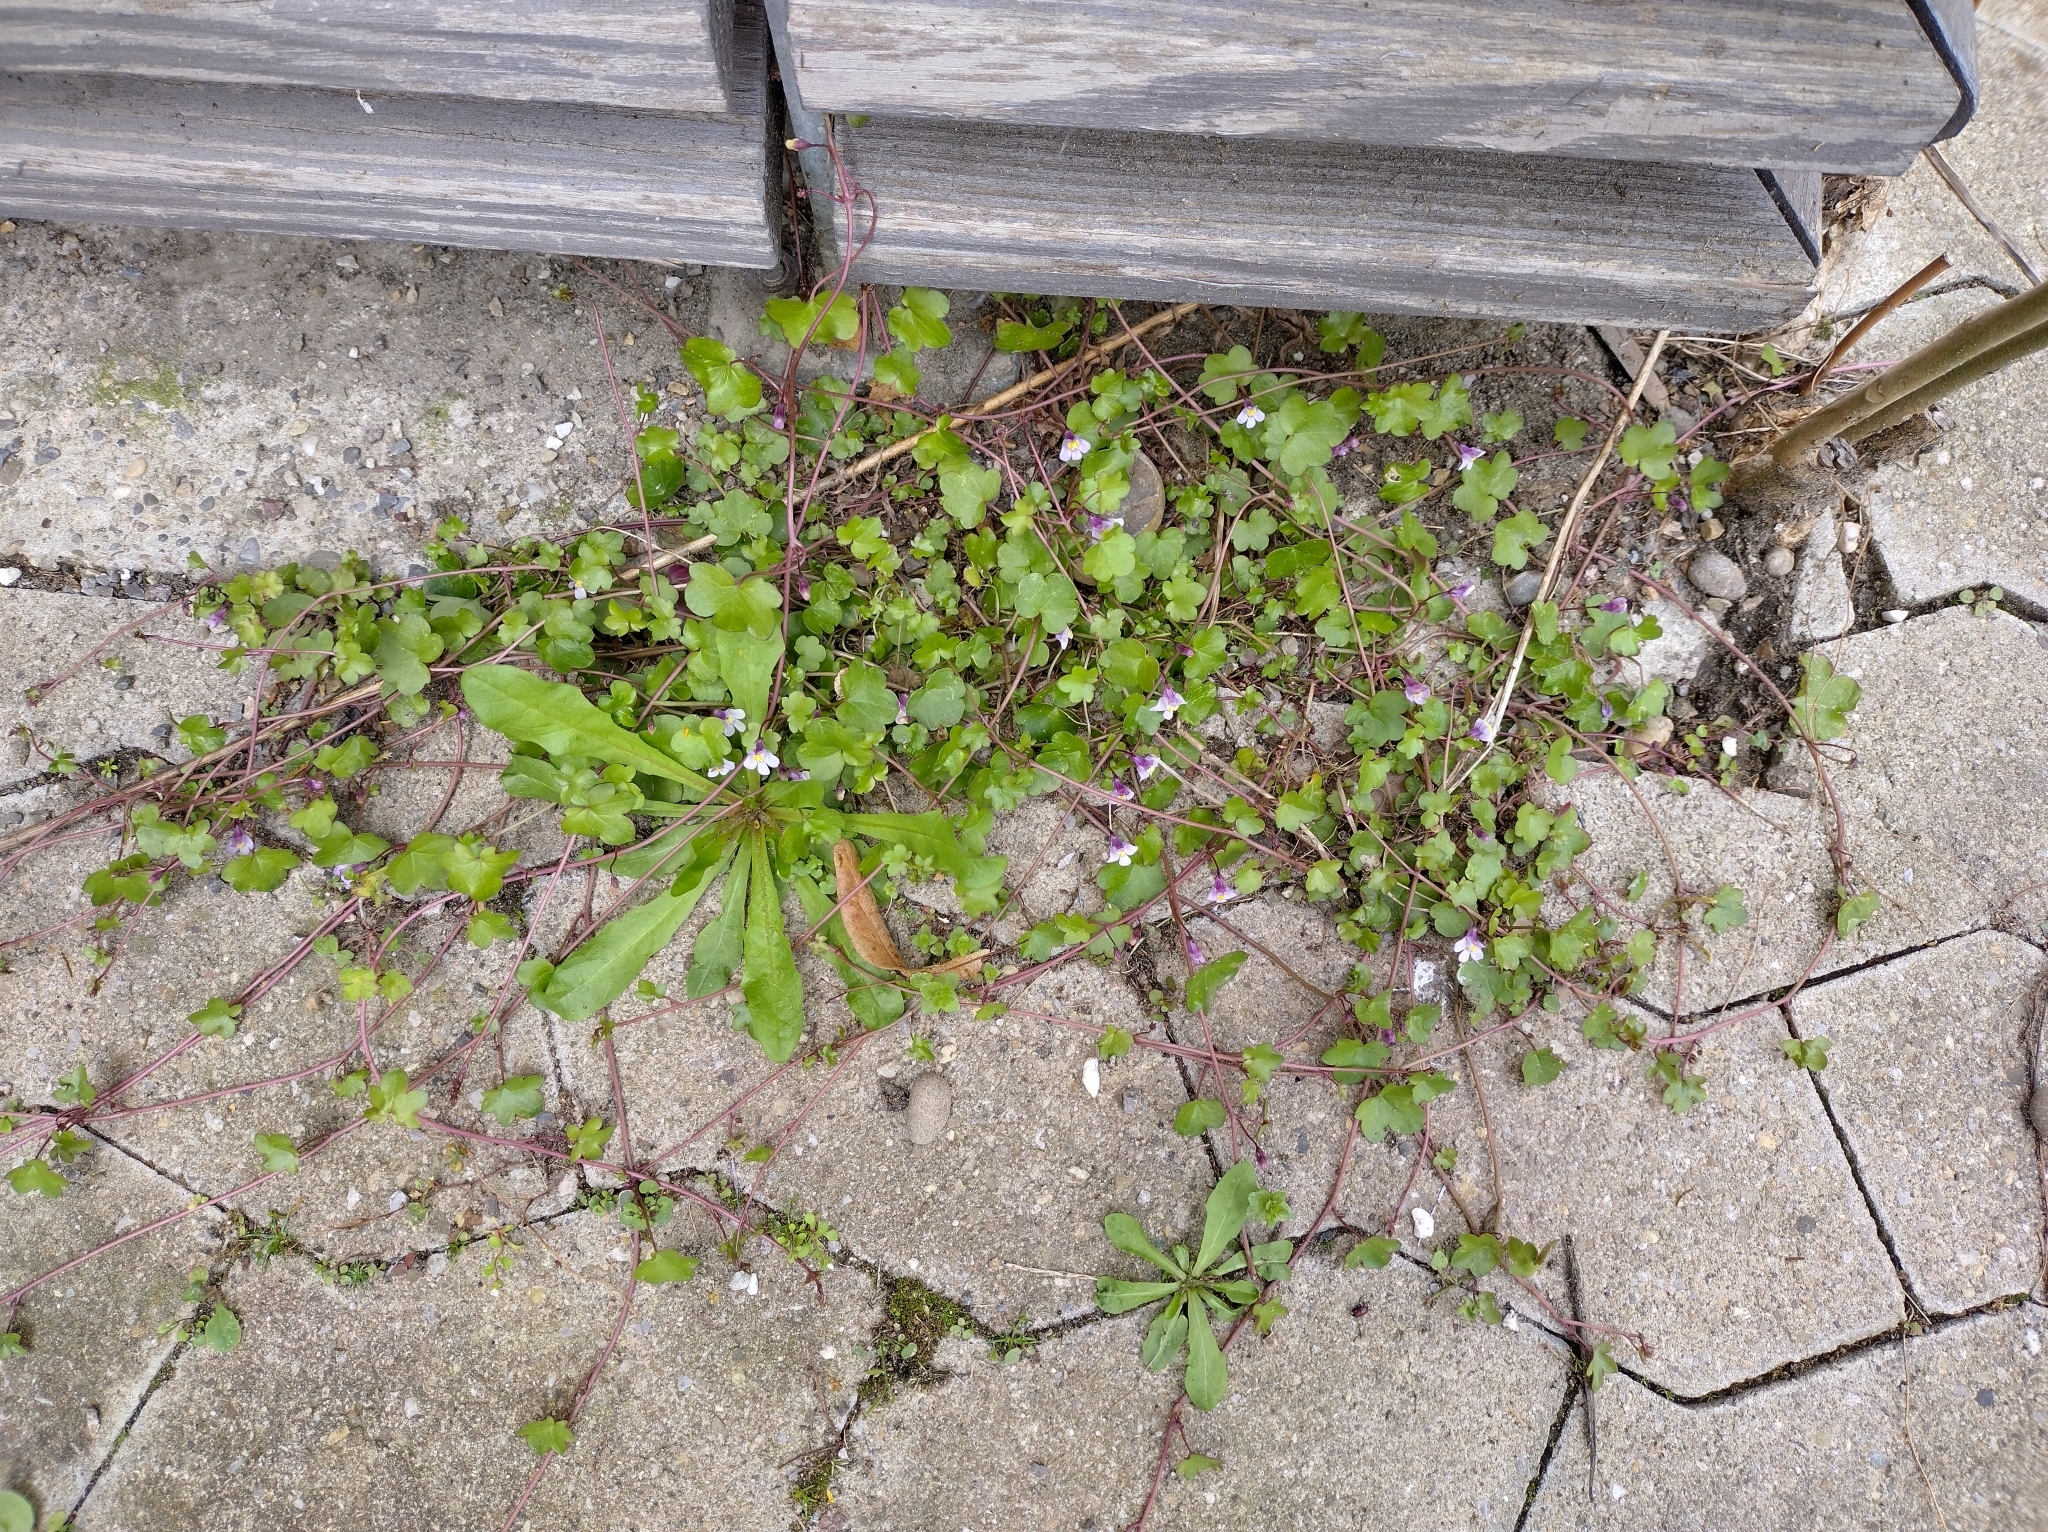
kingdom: Plantae
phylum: Tracheophyta
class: Magnoliopsida
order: Lamiales
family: Plantaginaceae
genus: Cymbalaria
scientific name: Cymbalaria muralis
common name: Ivy-leaved toadflax
